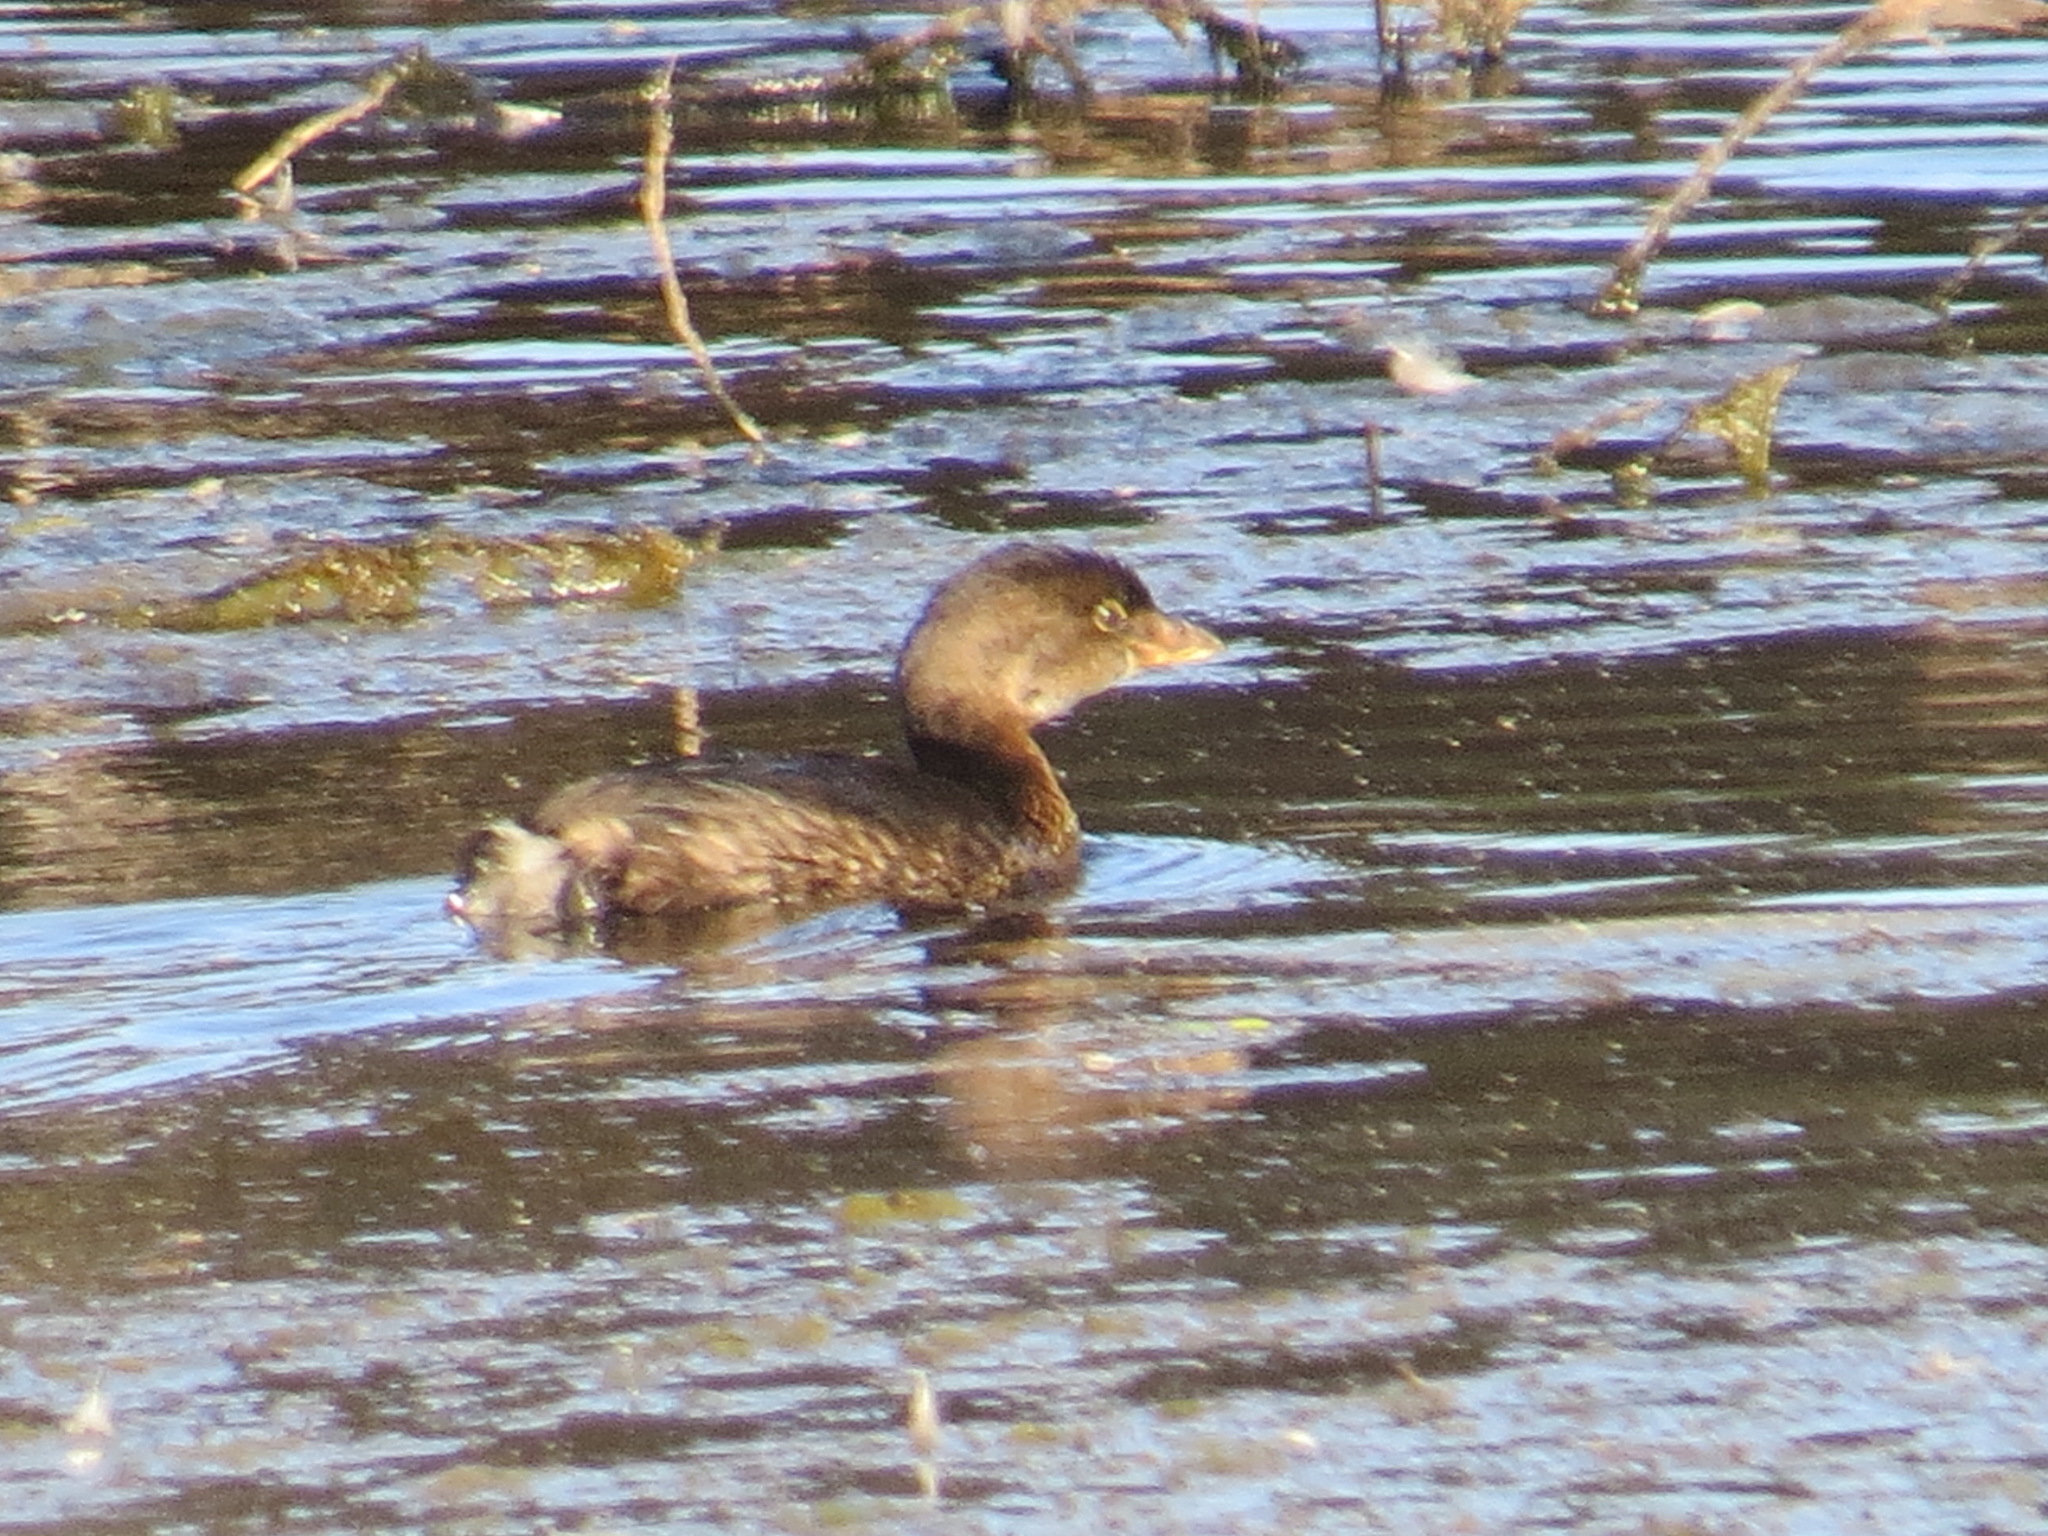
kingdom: Animalia
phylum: Chordata
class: Aves
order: Podicipediformes
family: Podicipedidae
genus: Podilymbus
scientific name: Podilymbus podiceps
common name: Pied-billed grebe
